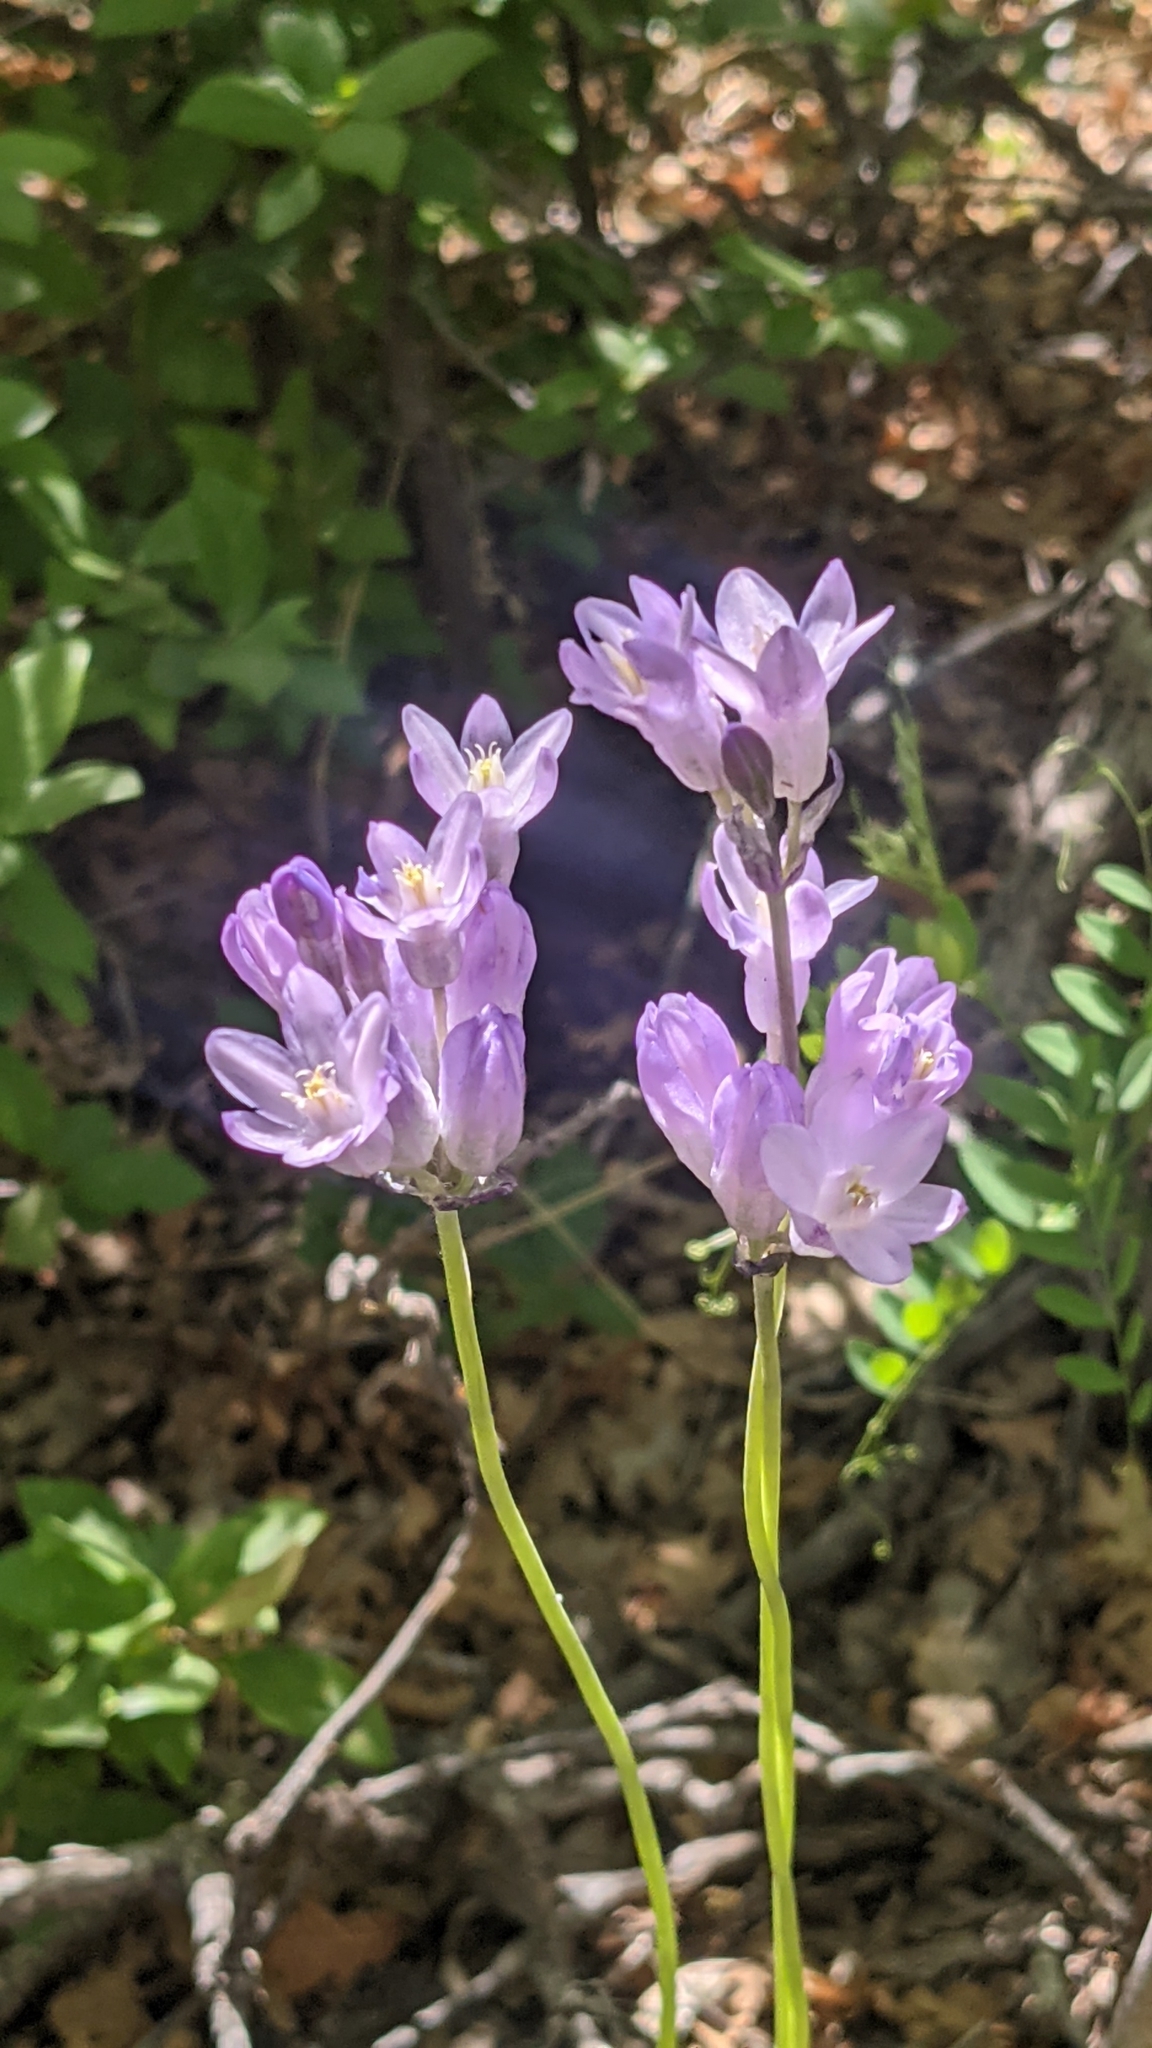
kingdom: Plantae
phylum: Tracheophyta
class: Liliopsida
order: Asparagales
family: Asparagaceae
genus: Dipterostemon
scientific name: Dipterostemon capitatus
